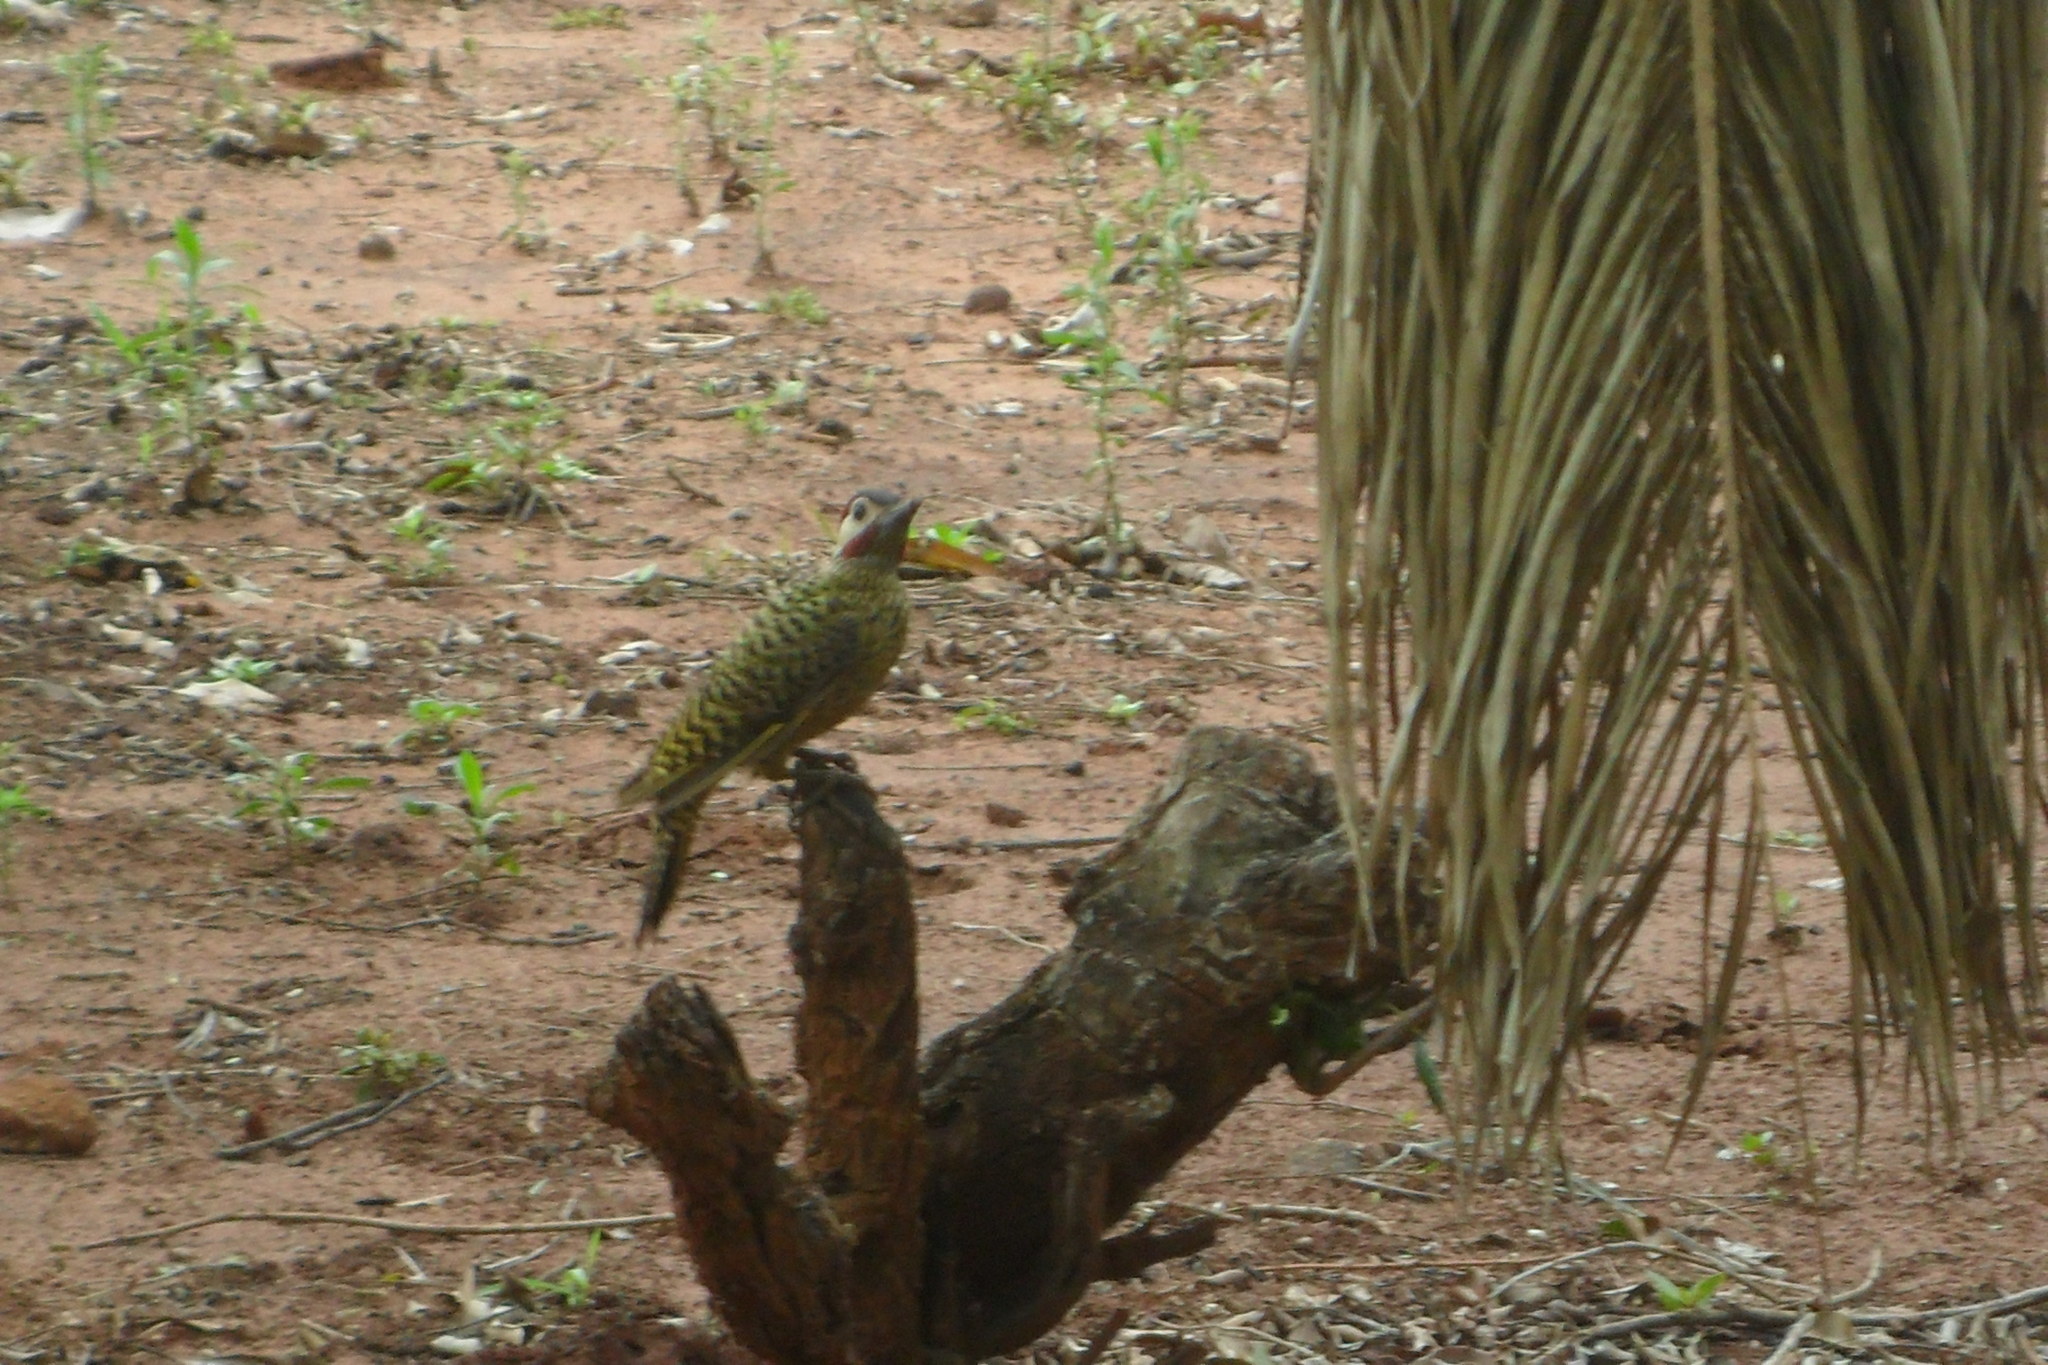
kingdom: Animalia
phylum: Chordata
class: Aves
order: Piciformes
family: Picidae
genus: Colaptes
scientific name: Colaptes melanochloros
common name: Green-barred woodpecker
